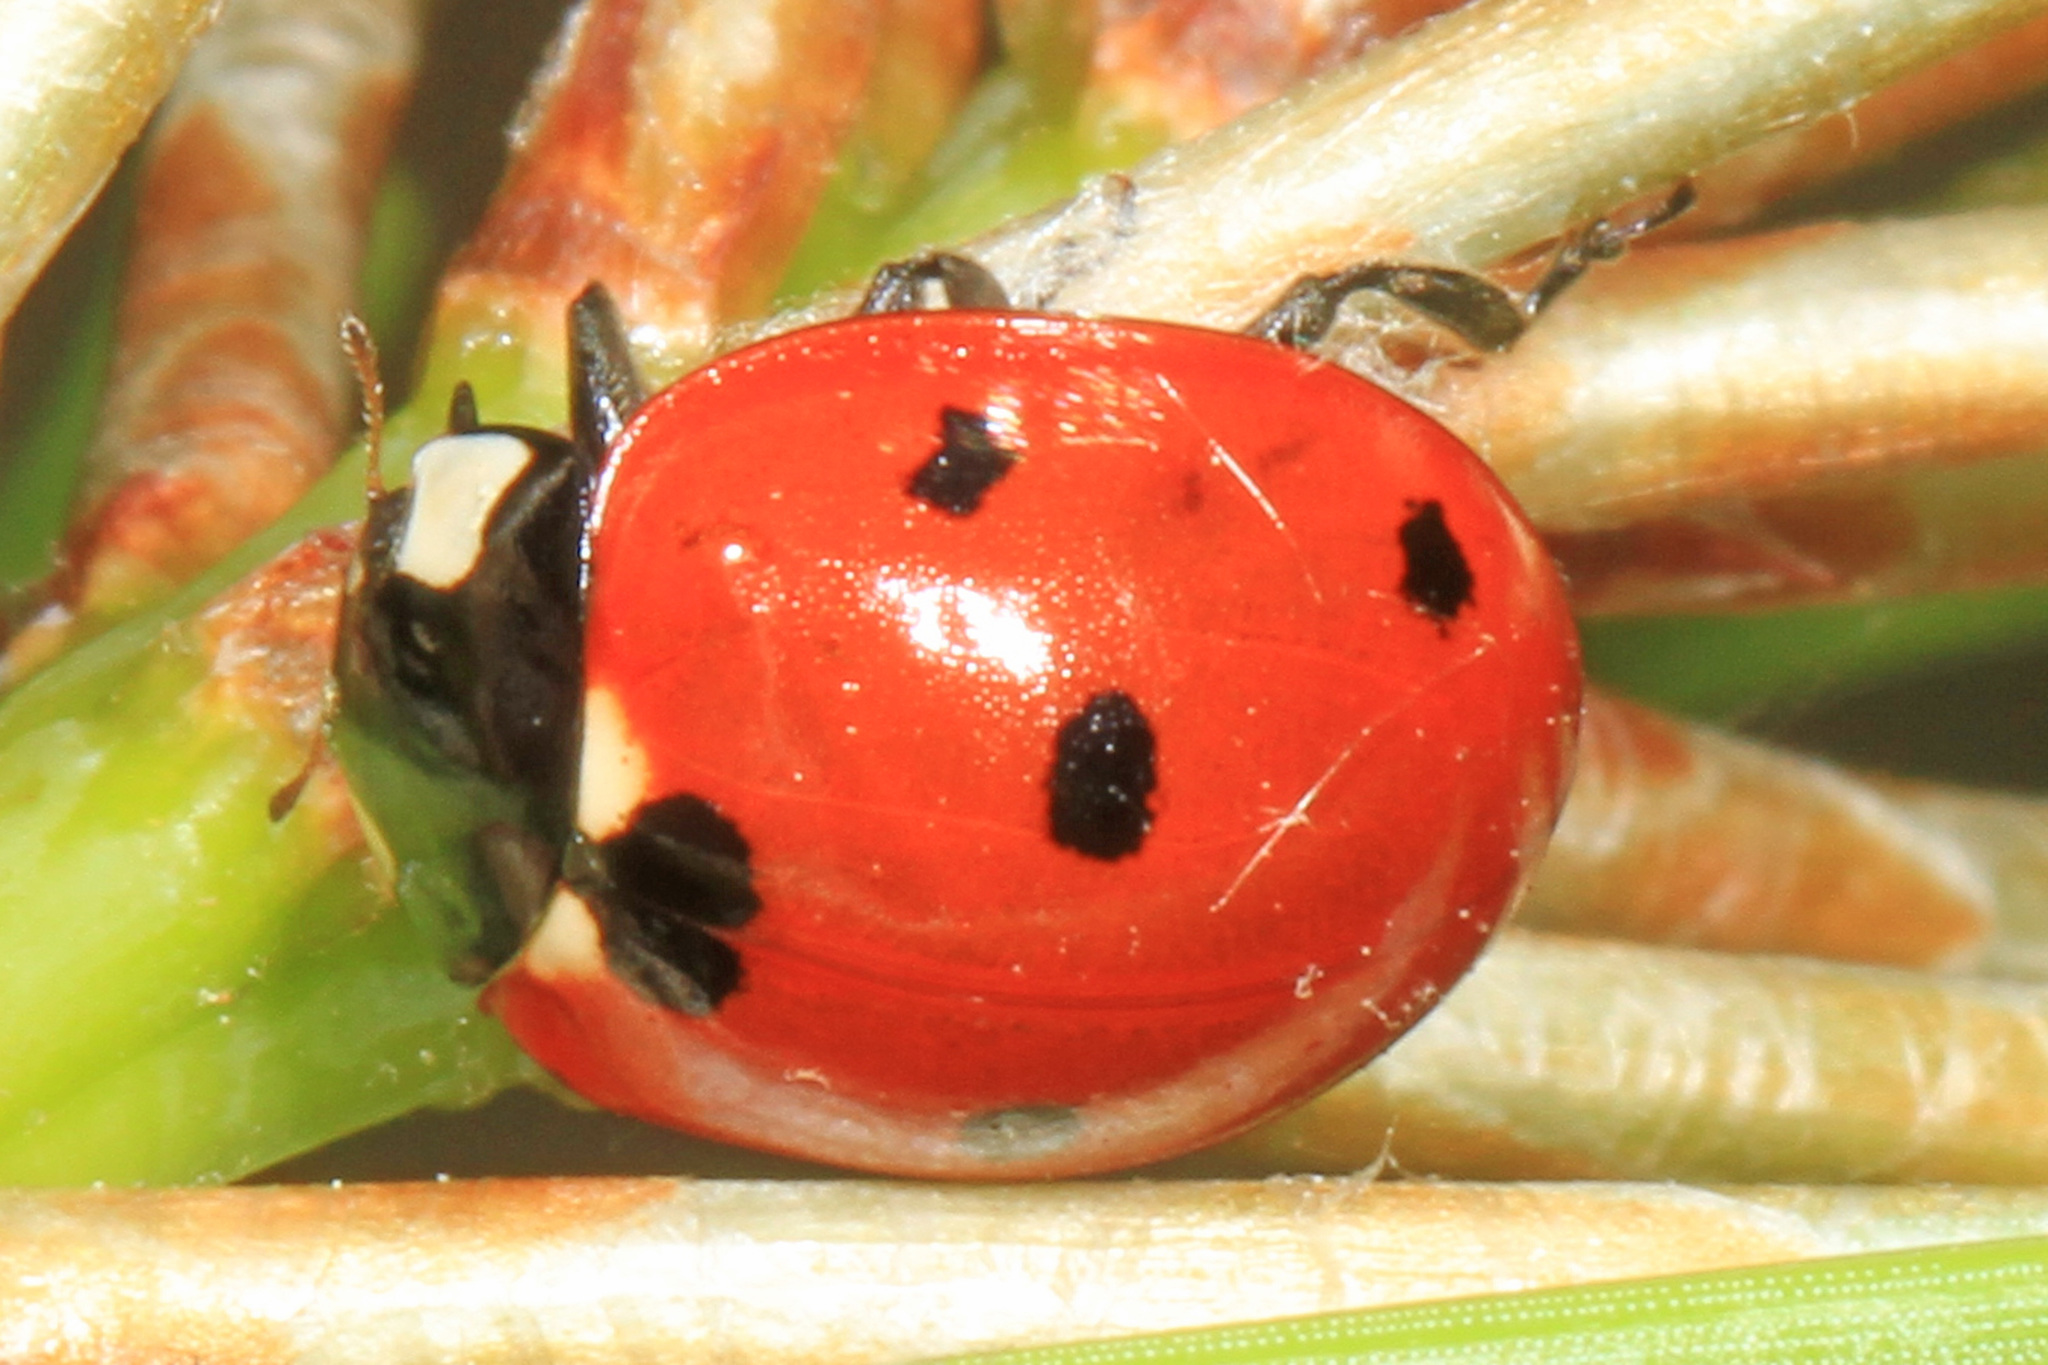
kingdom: Animalia
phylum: Arthropoda
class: Insecta
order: Coleoptera
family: Coccinellidae
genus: Coccinella
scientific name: Coccinella septempunctata
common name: Sevenspotted lady beetle
